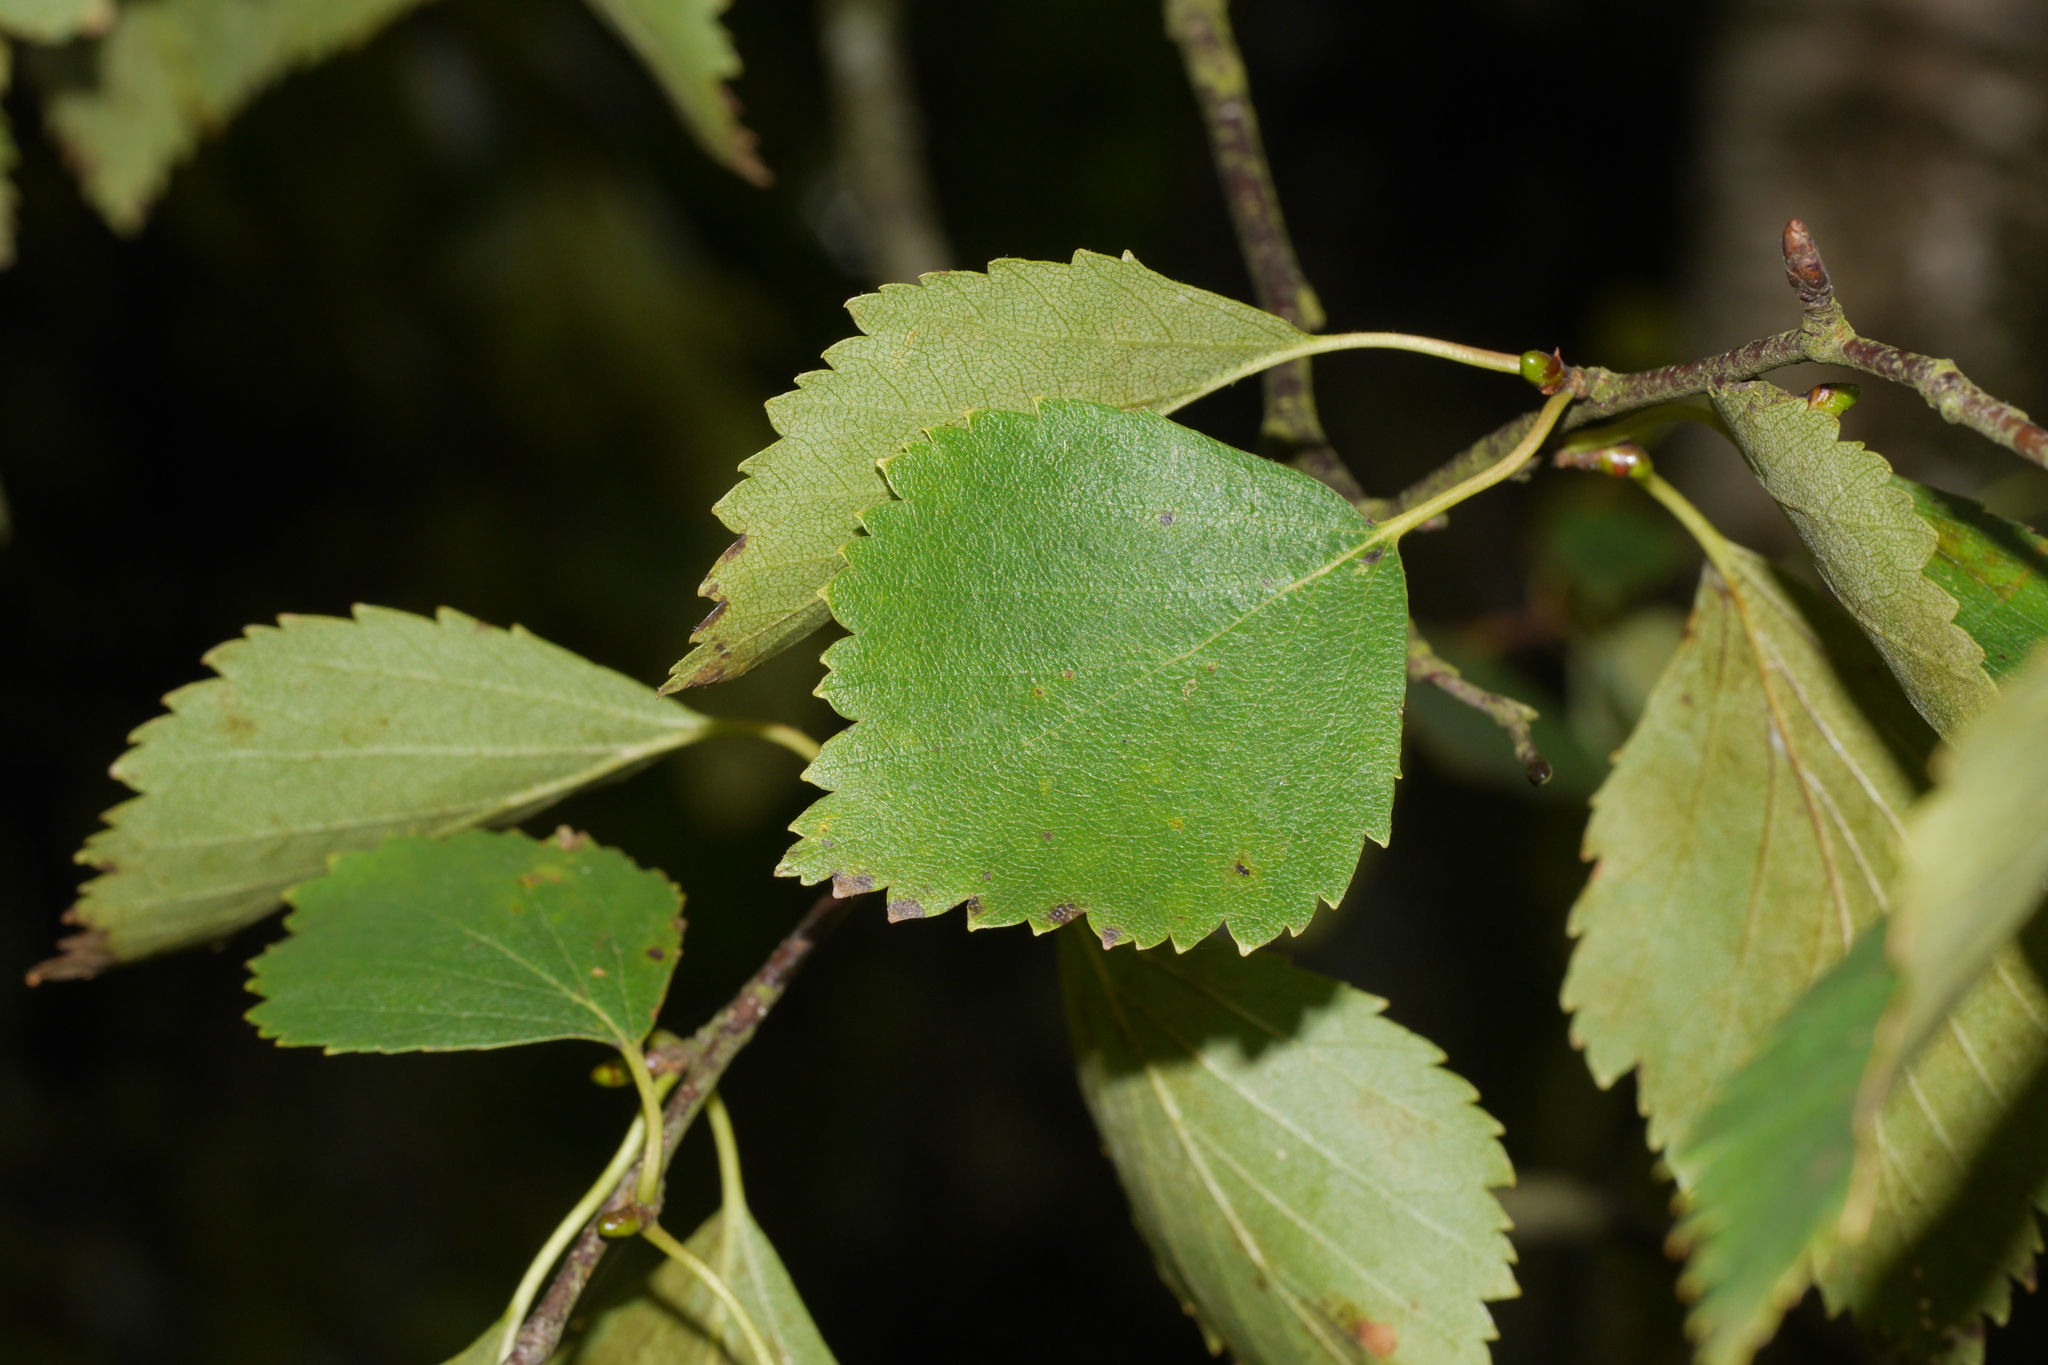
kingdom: Animalia
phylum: Arthropoda
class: Insecta
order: Hemiptera
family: Acanthosomatidae
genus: Elasmostethus
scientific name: Elasmostethus interstinctus
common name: Birch shieldbug
